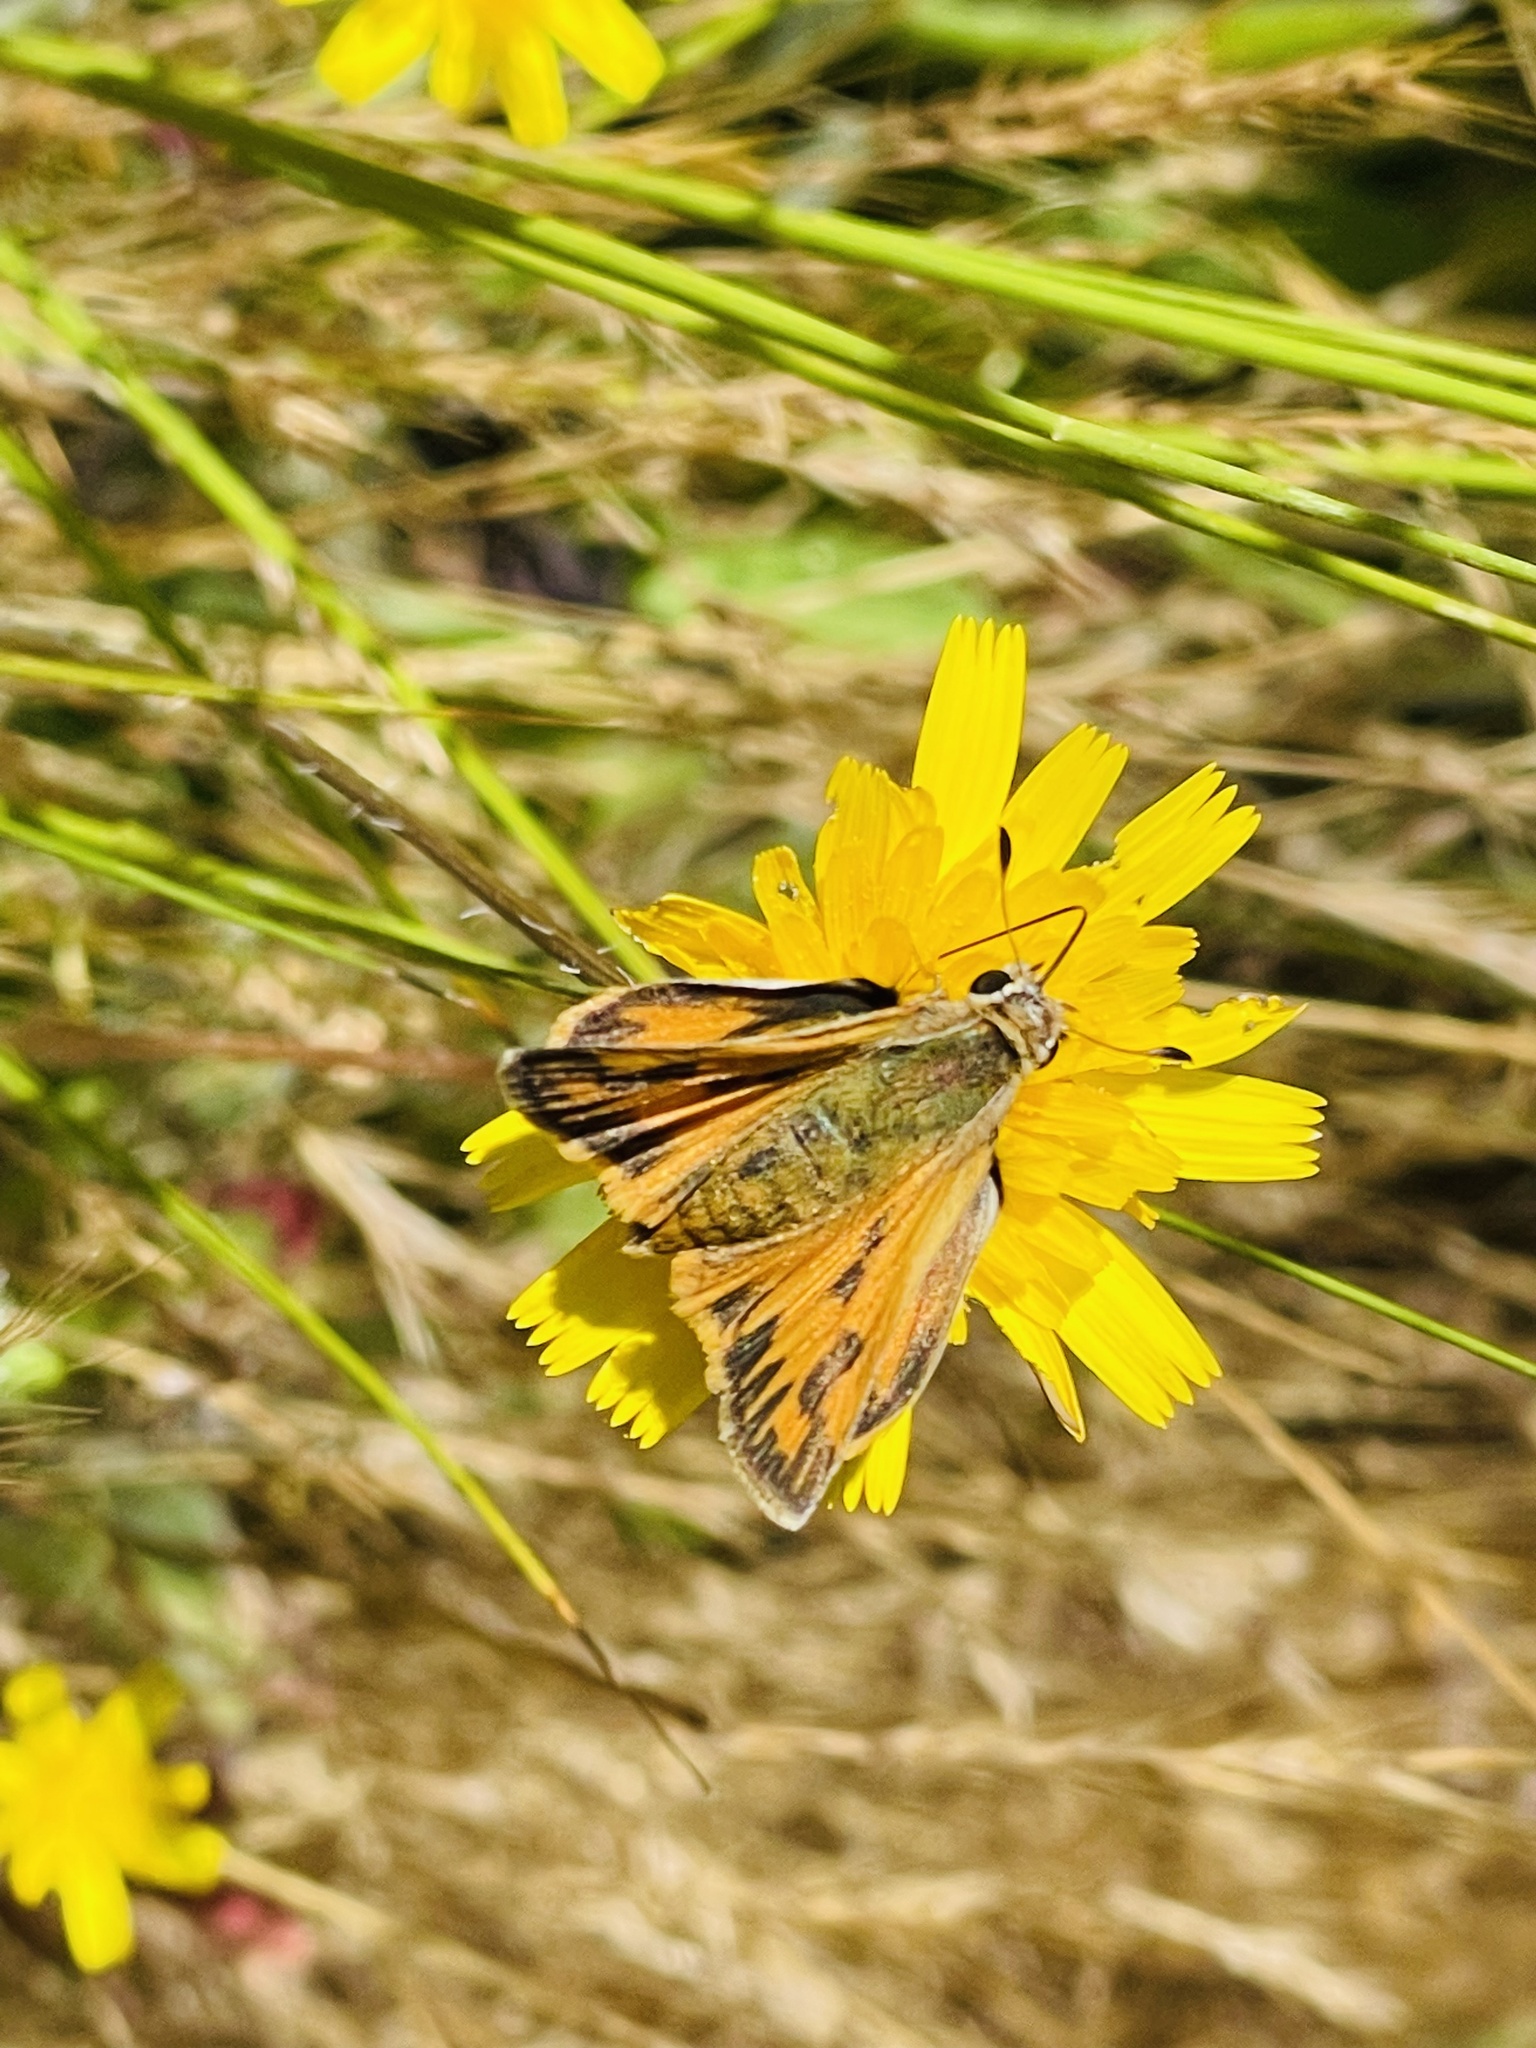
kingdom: Animalia
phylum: Arthropoda
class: Insecta
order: Lepidoptera
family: Hesperiidae
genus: Hylephila
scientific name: Hylephila fasciolata
